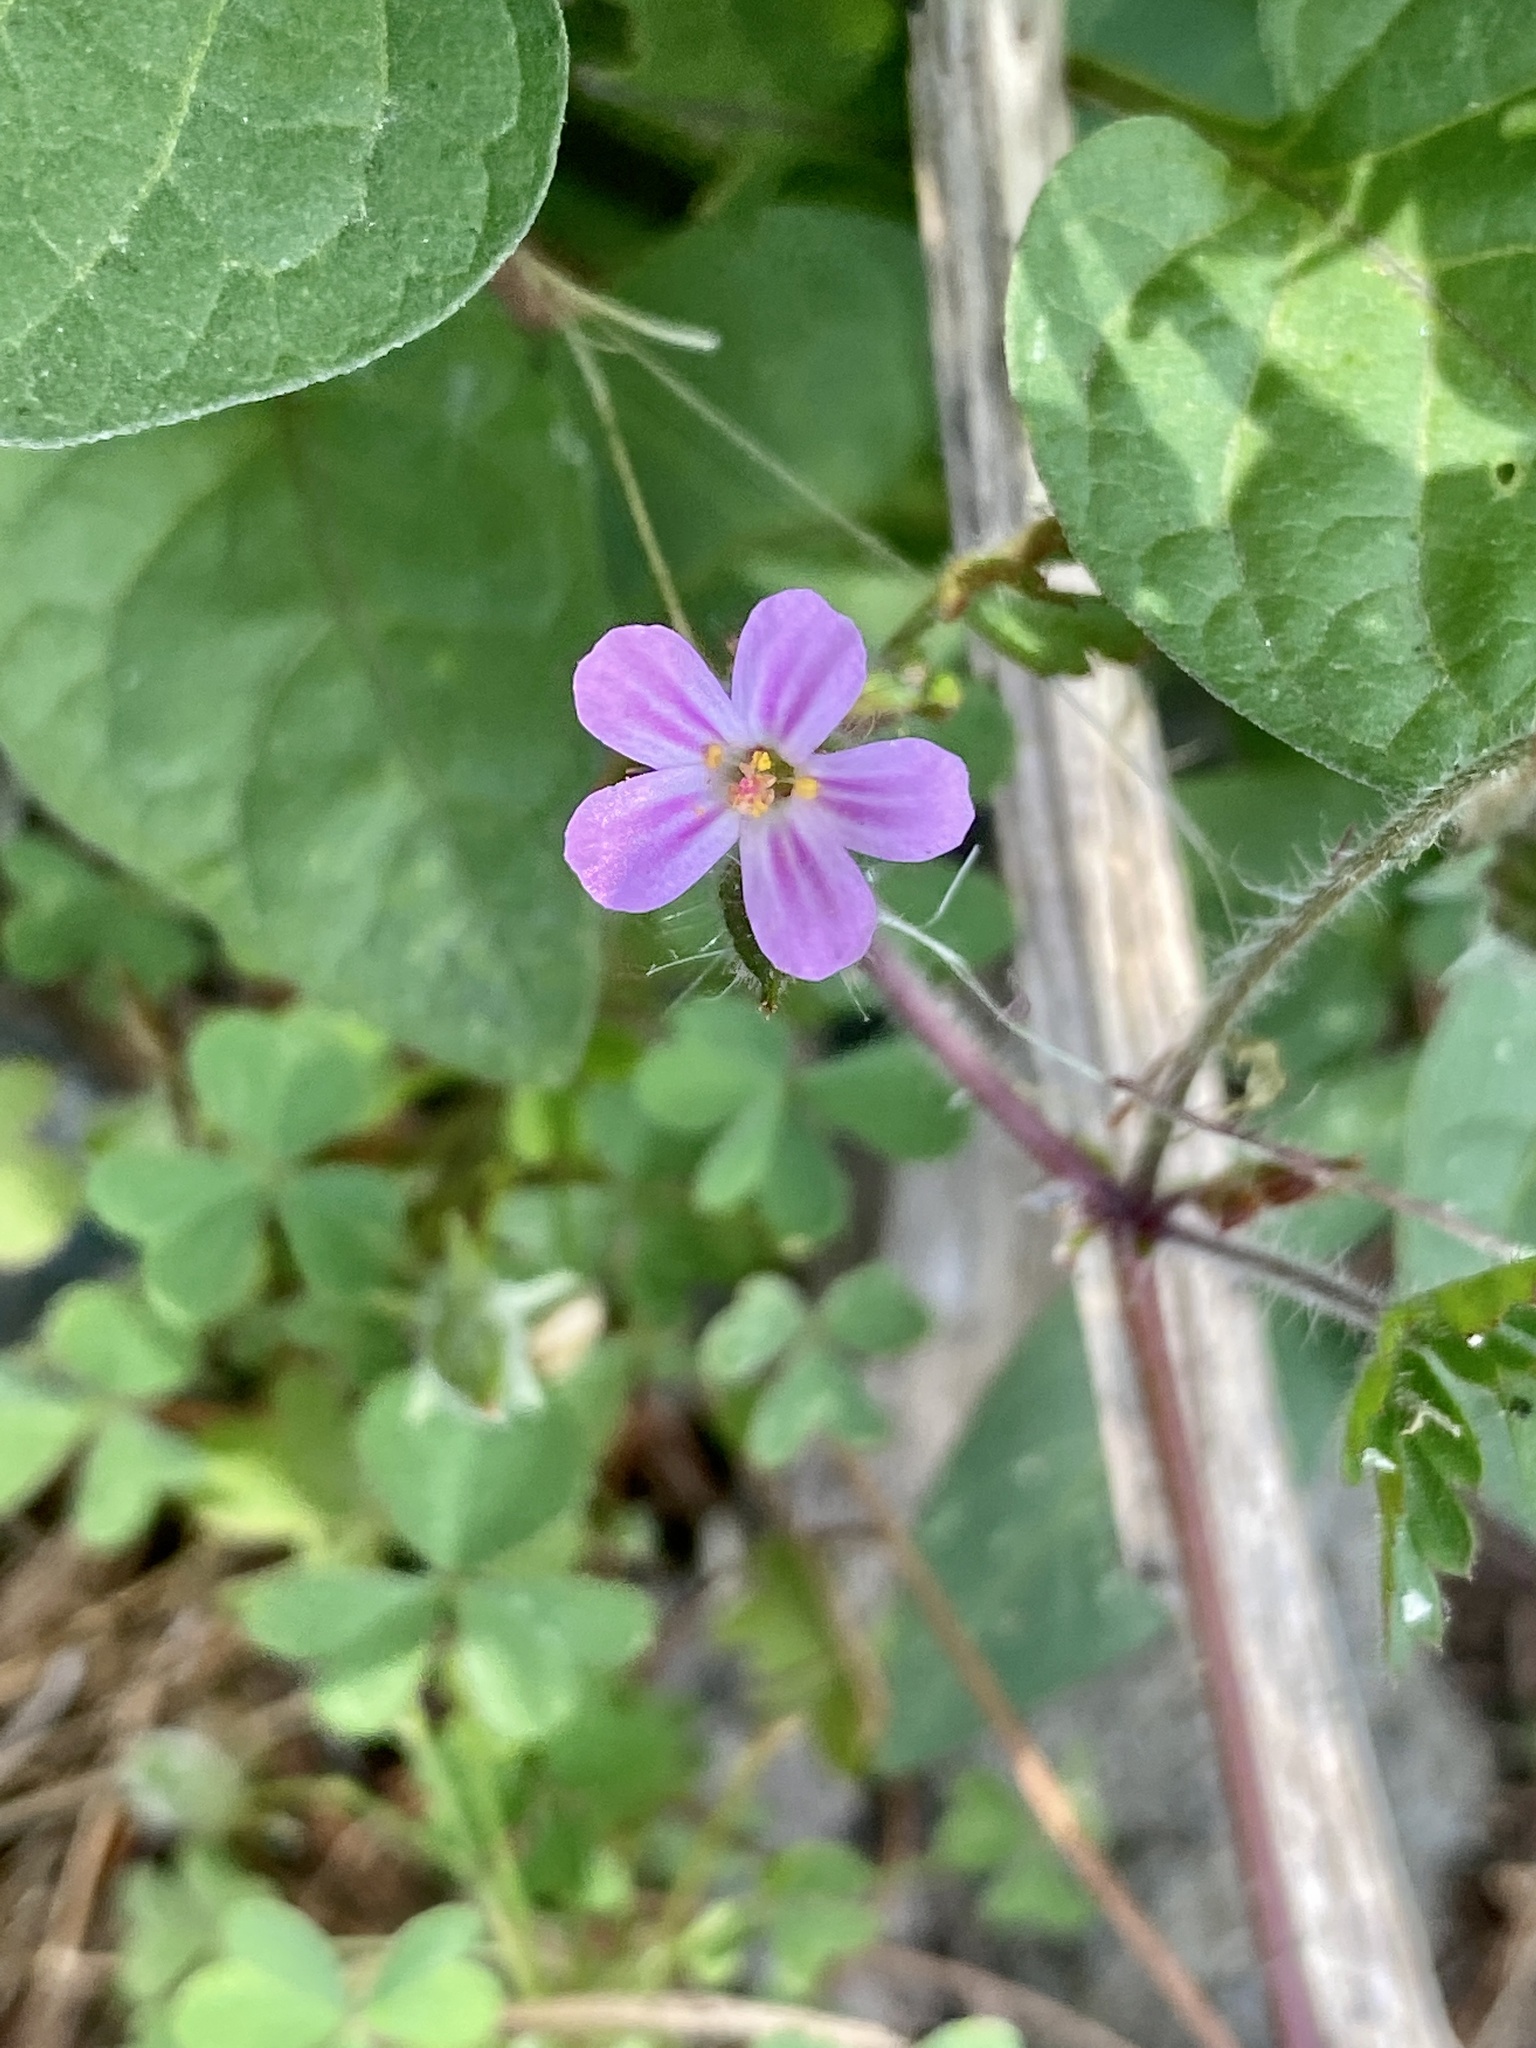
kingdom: Plantae
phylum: Tracheophyta
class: Magnoliopsida
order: Geraniales
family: Geraniaceae
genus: Geranium
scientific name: Geranium robertianum
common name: Herb-robert
